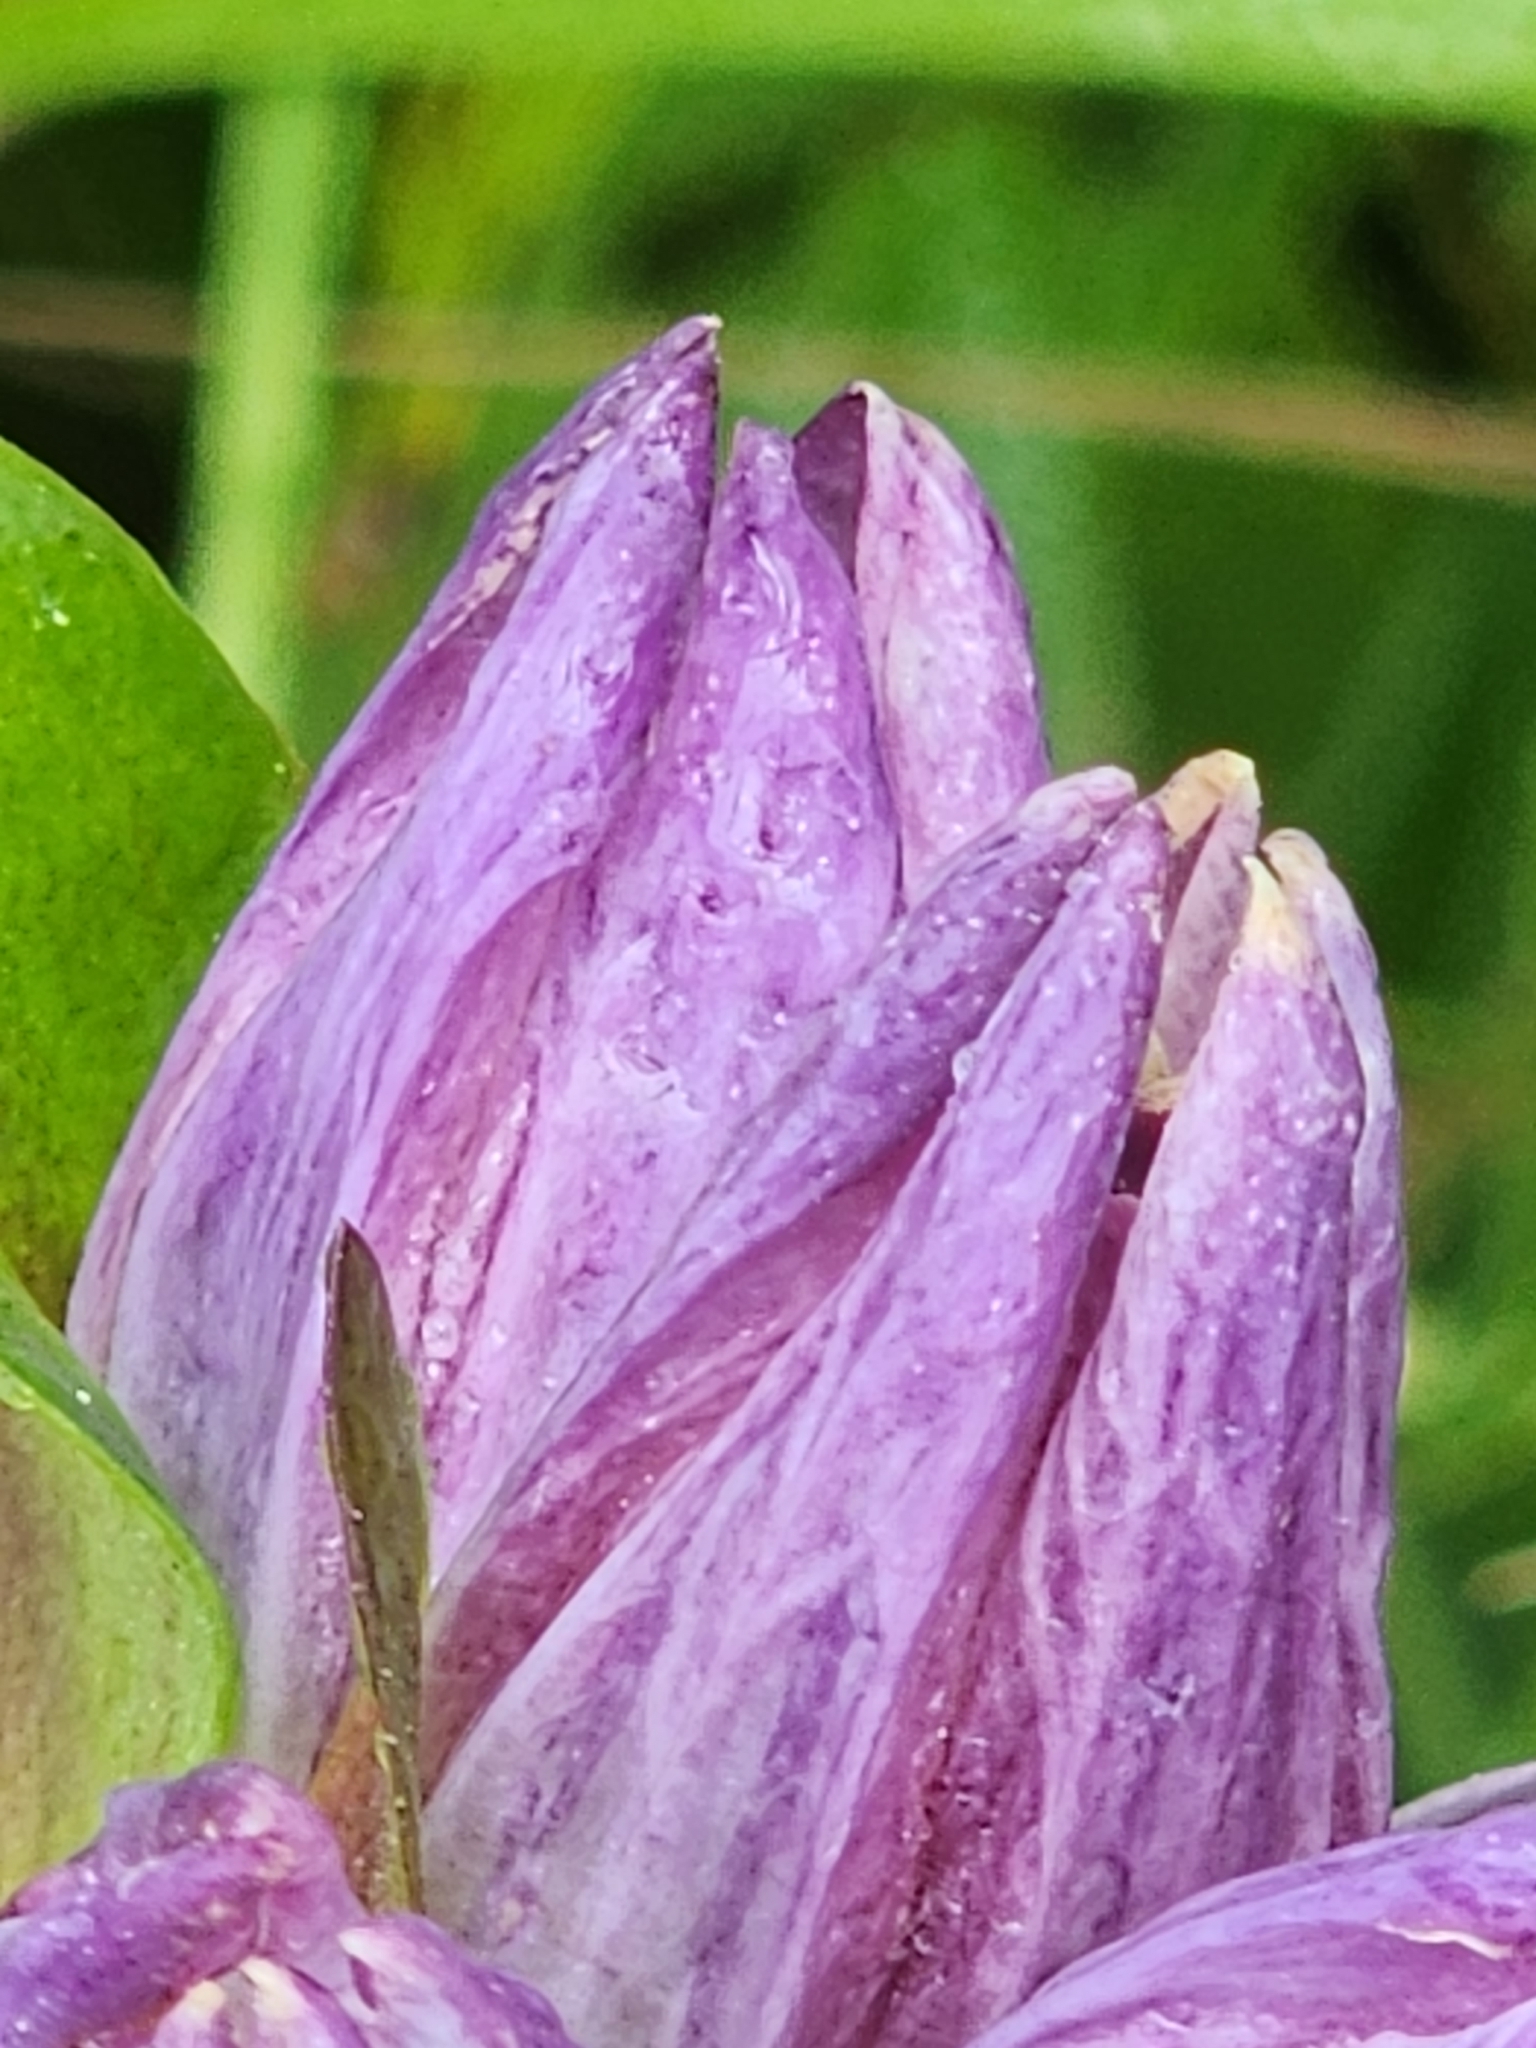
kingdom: Plantae
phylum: Tracheophyta
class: Magnoliopsida
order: Gentianales
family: Gentianaceae
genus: Gentiana
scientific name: Gentiana rubricaulis
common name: Purple-stemmed gentian
